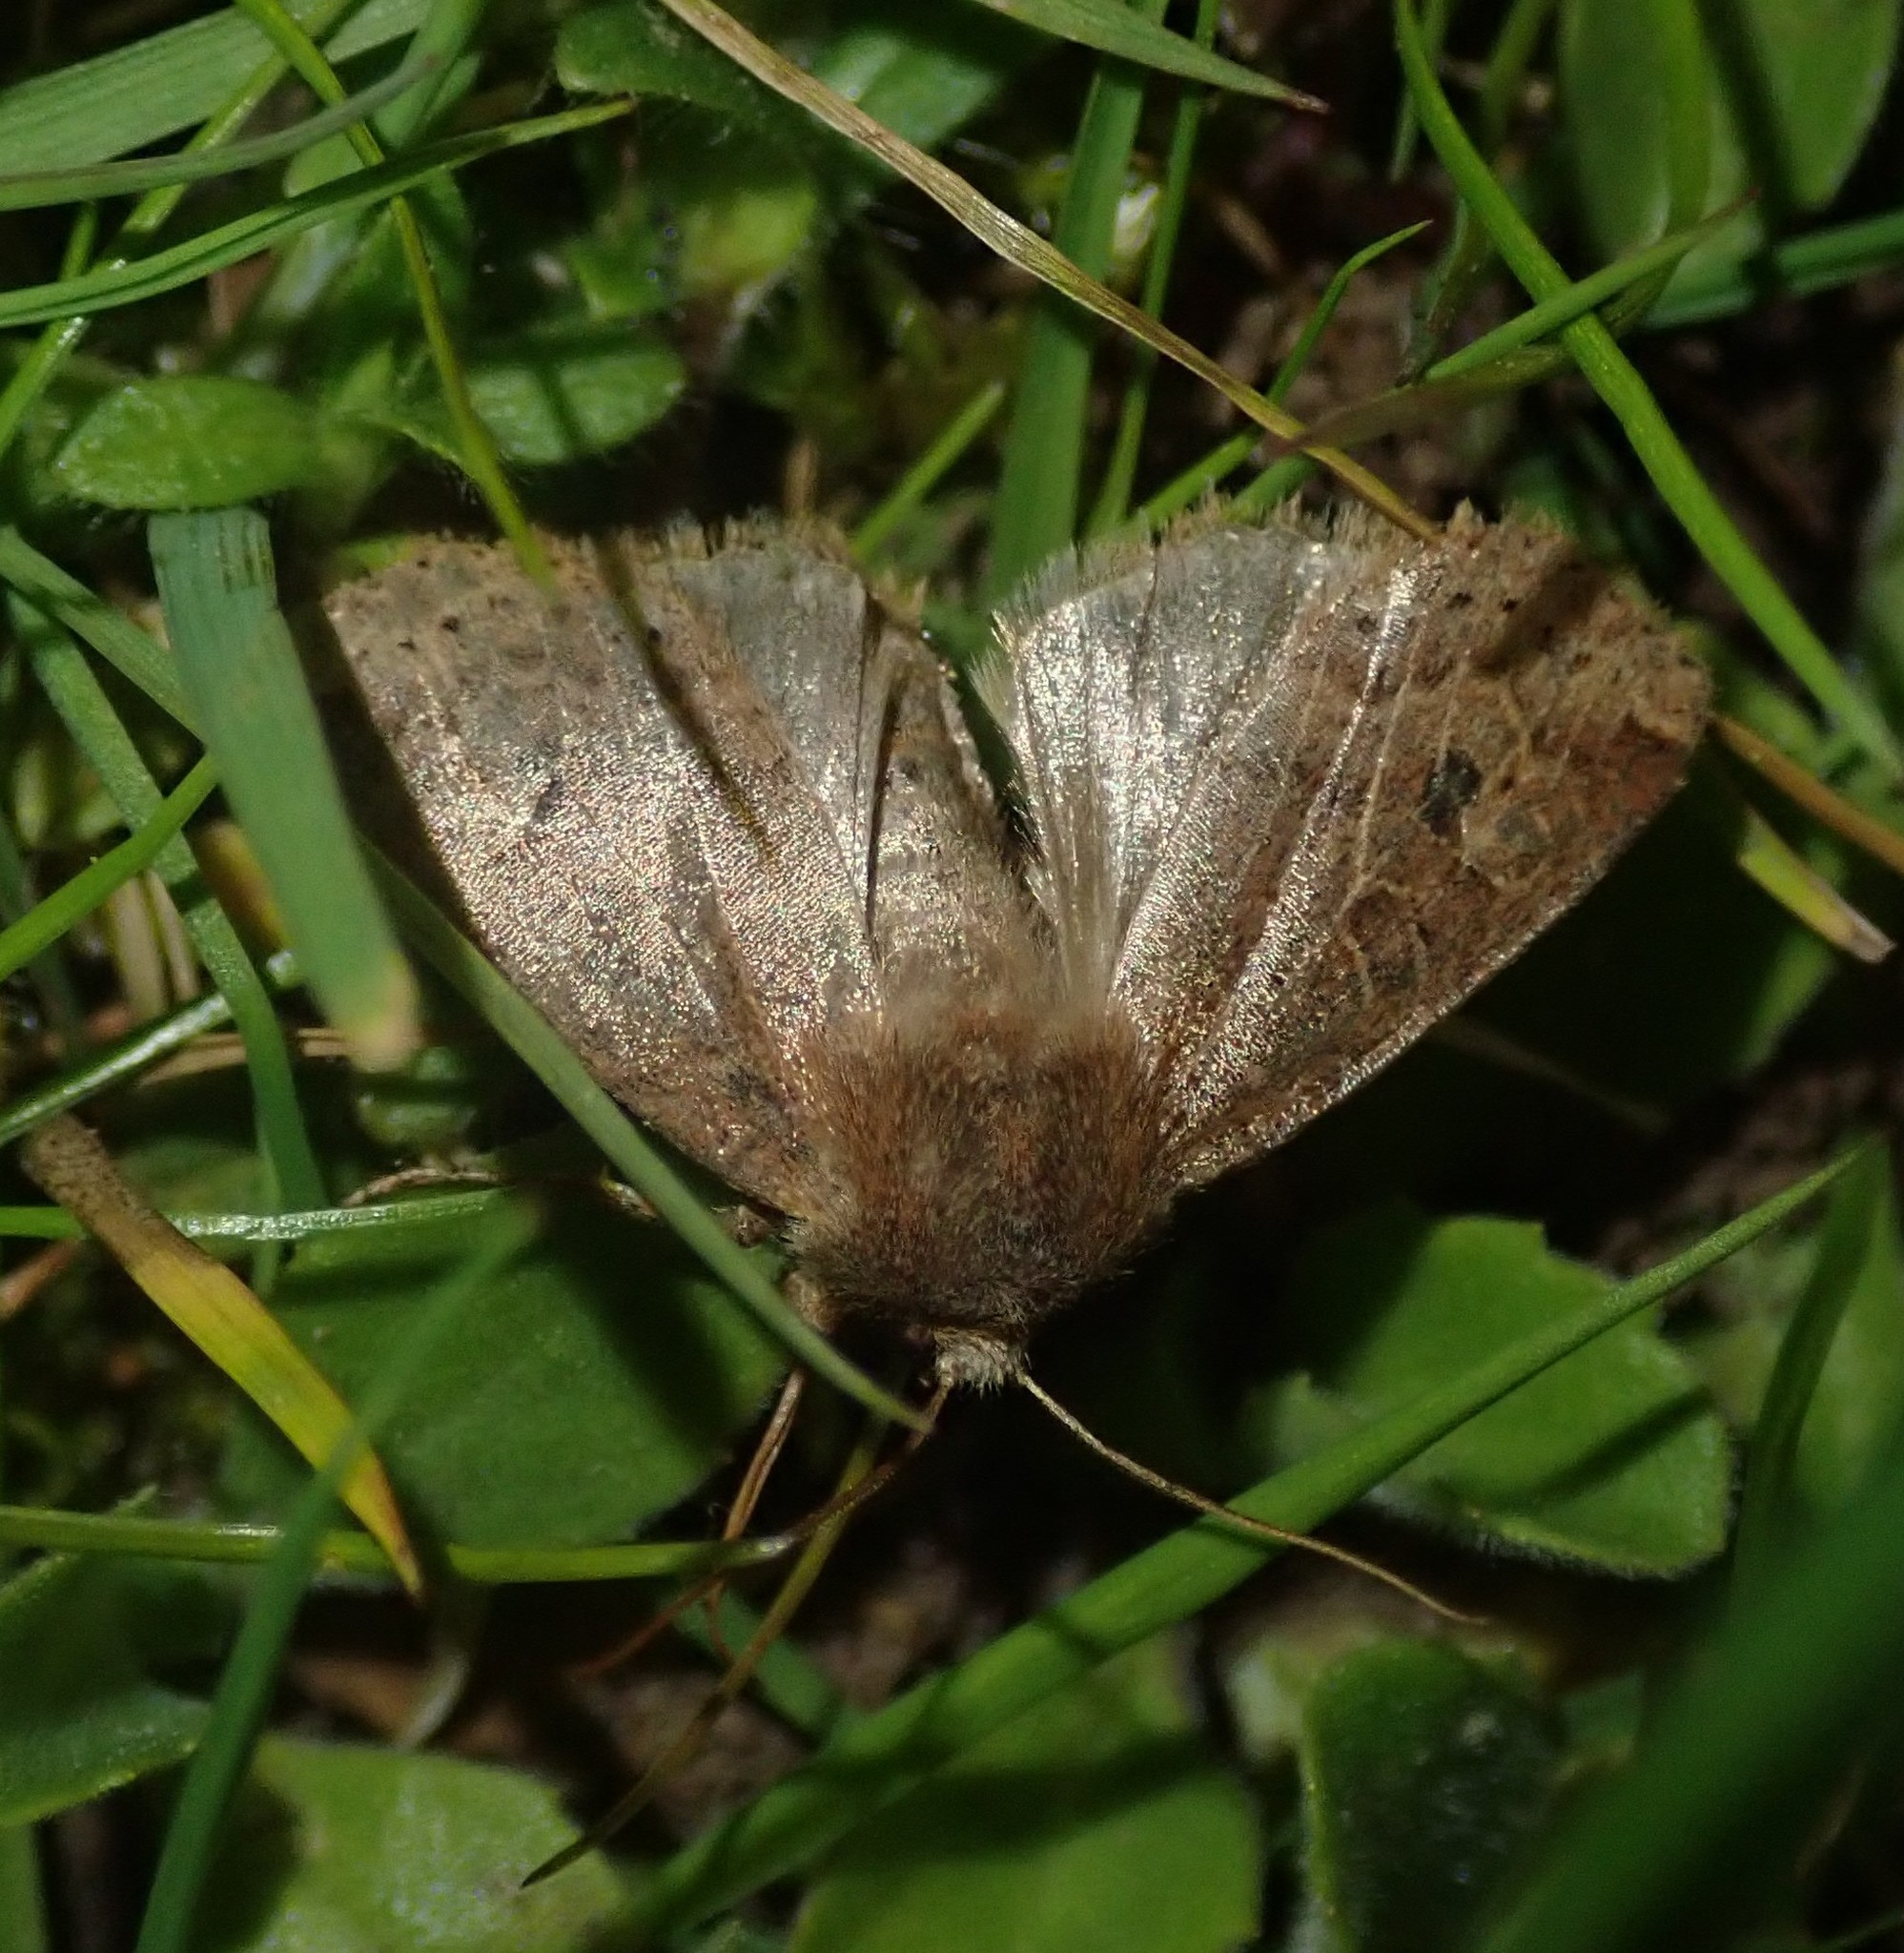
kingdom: Animalia
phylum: Arthropoda
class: Insecta
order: Lepidoptera
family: Noctuidae
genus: Conistra
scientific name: Conistra vaccinii
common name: Chestnut
